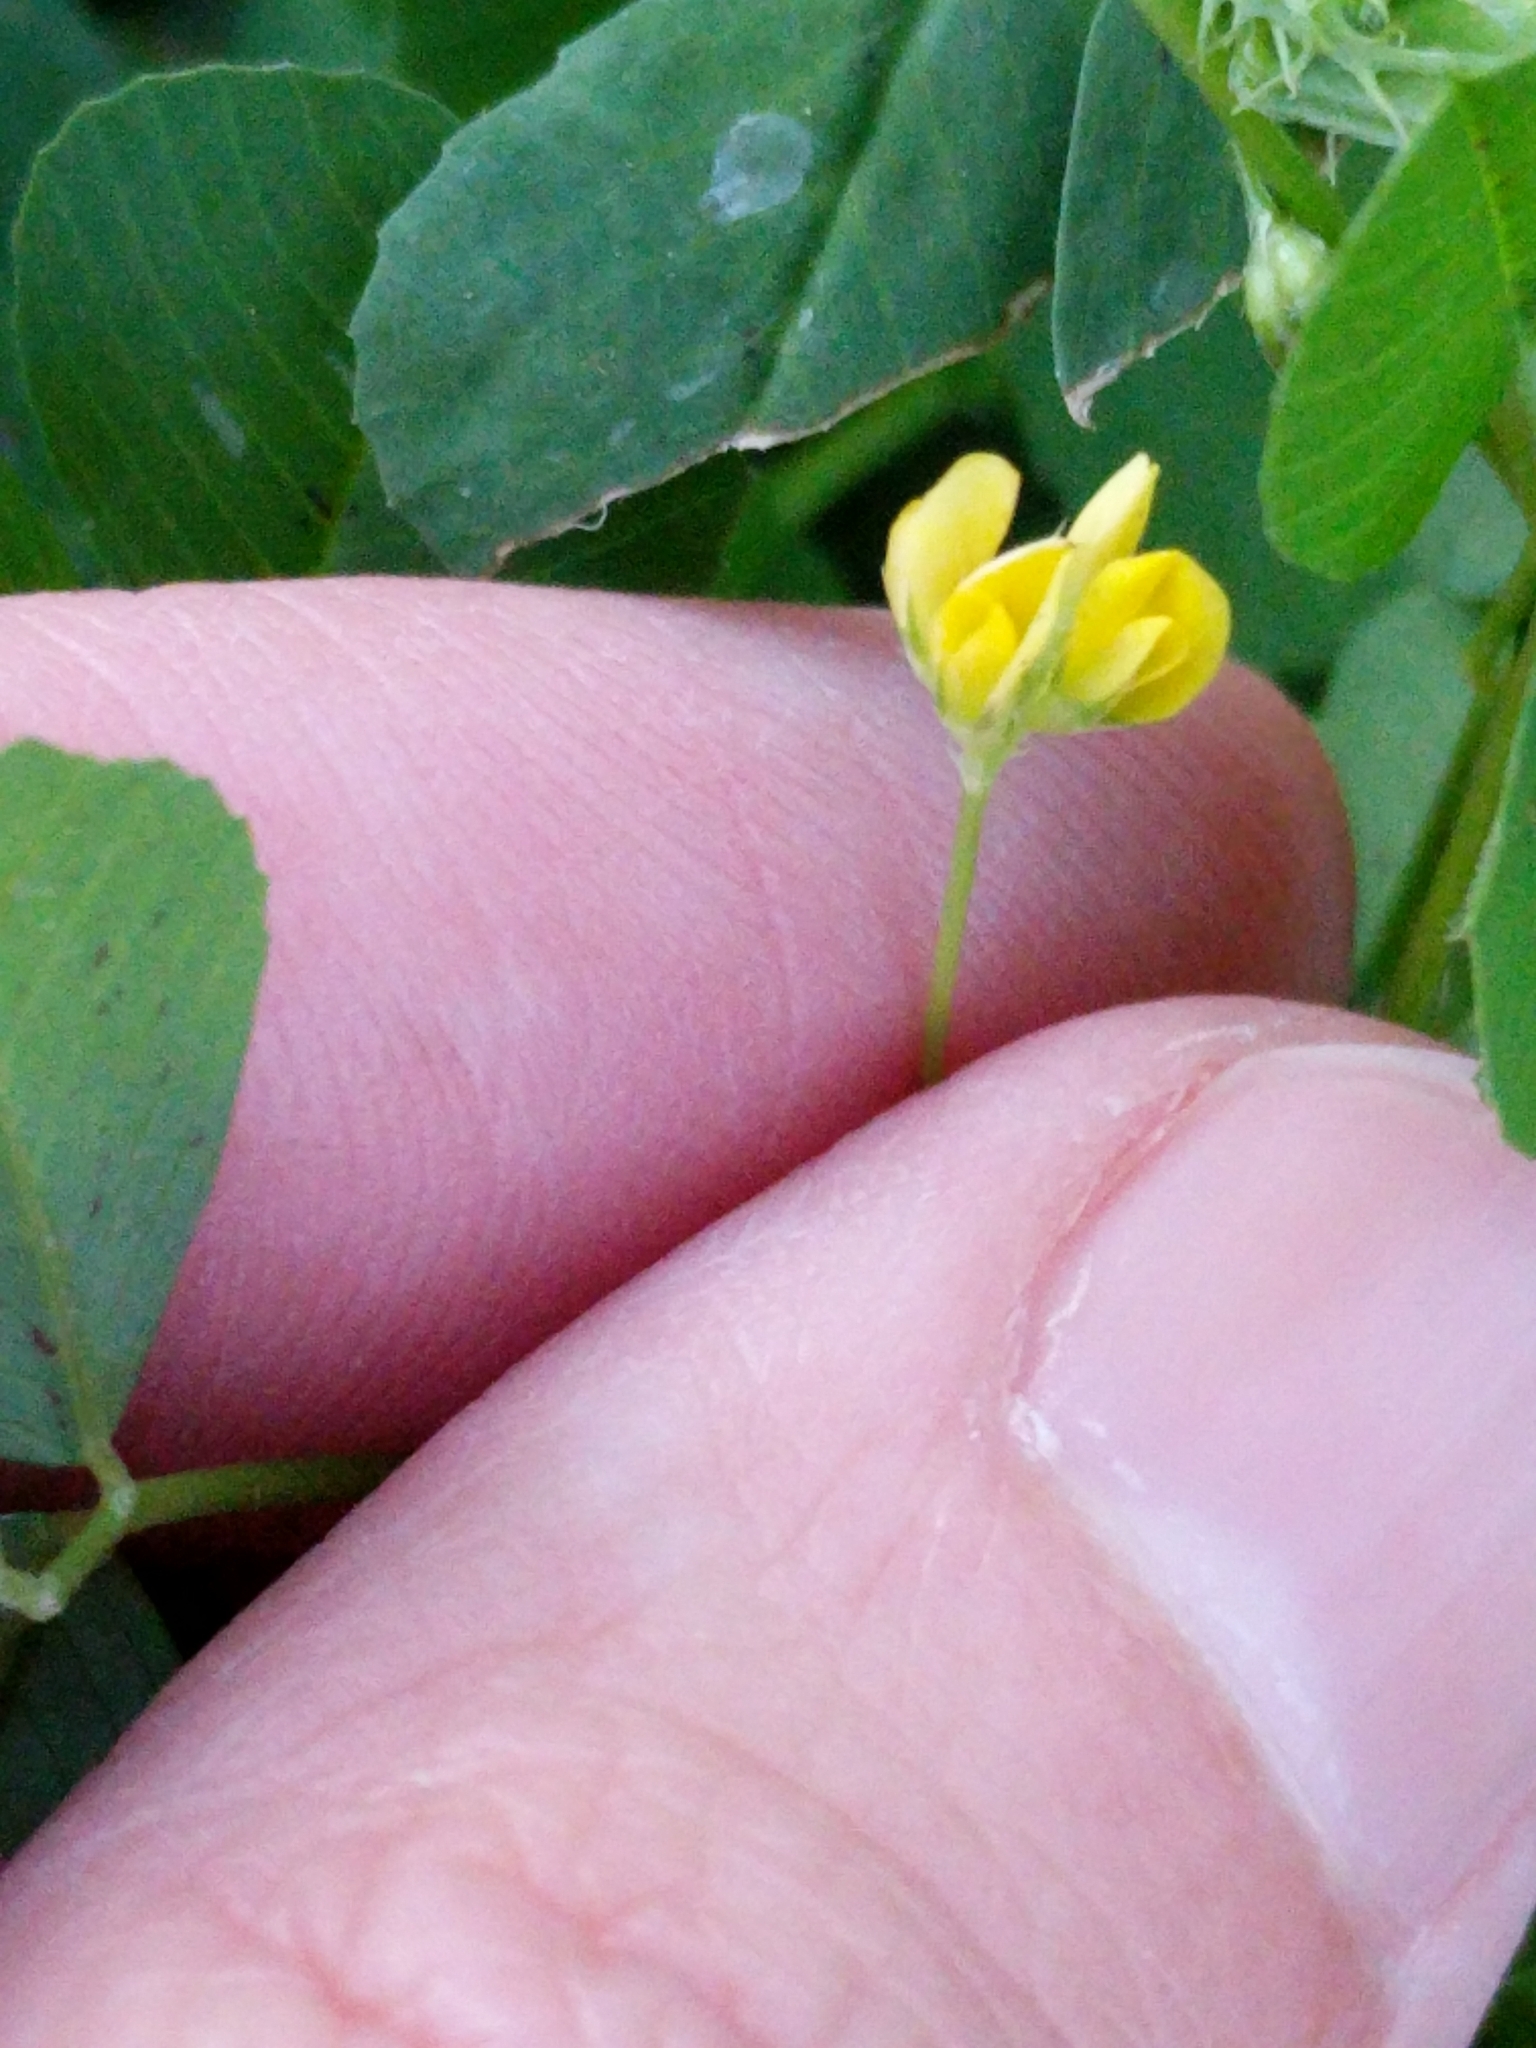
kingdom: Plantae
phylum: Tracheophyta
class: Magnoliopsida
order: Fabales
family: Fabaceae
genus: Medicago
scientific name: Medicago polymorpha
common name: Burclover
